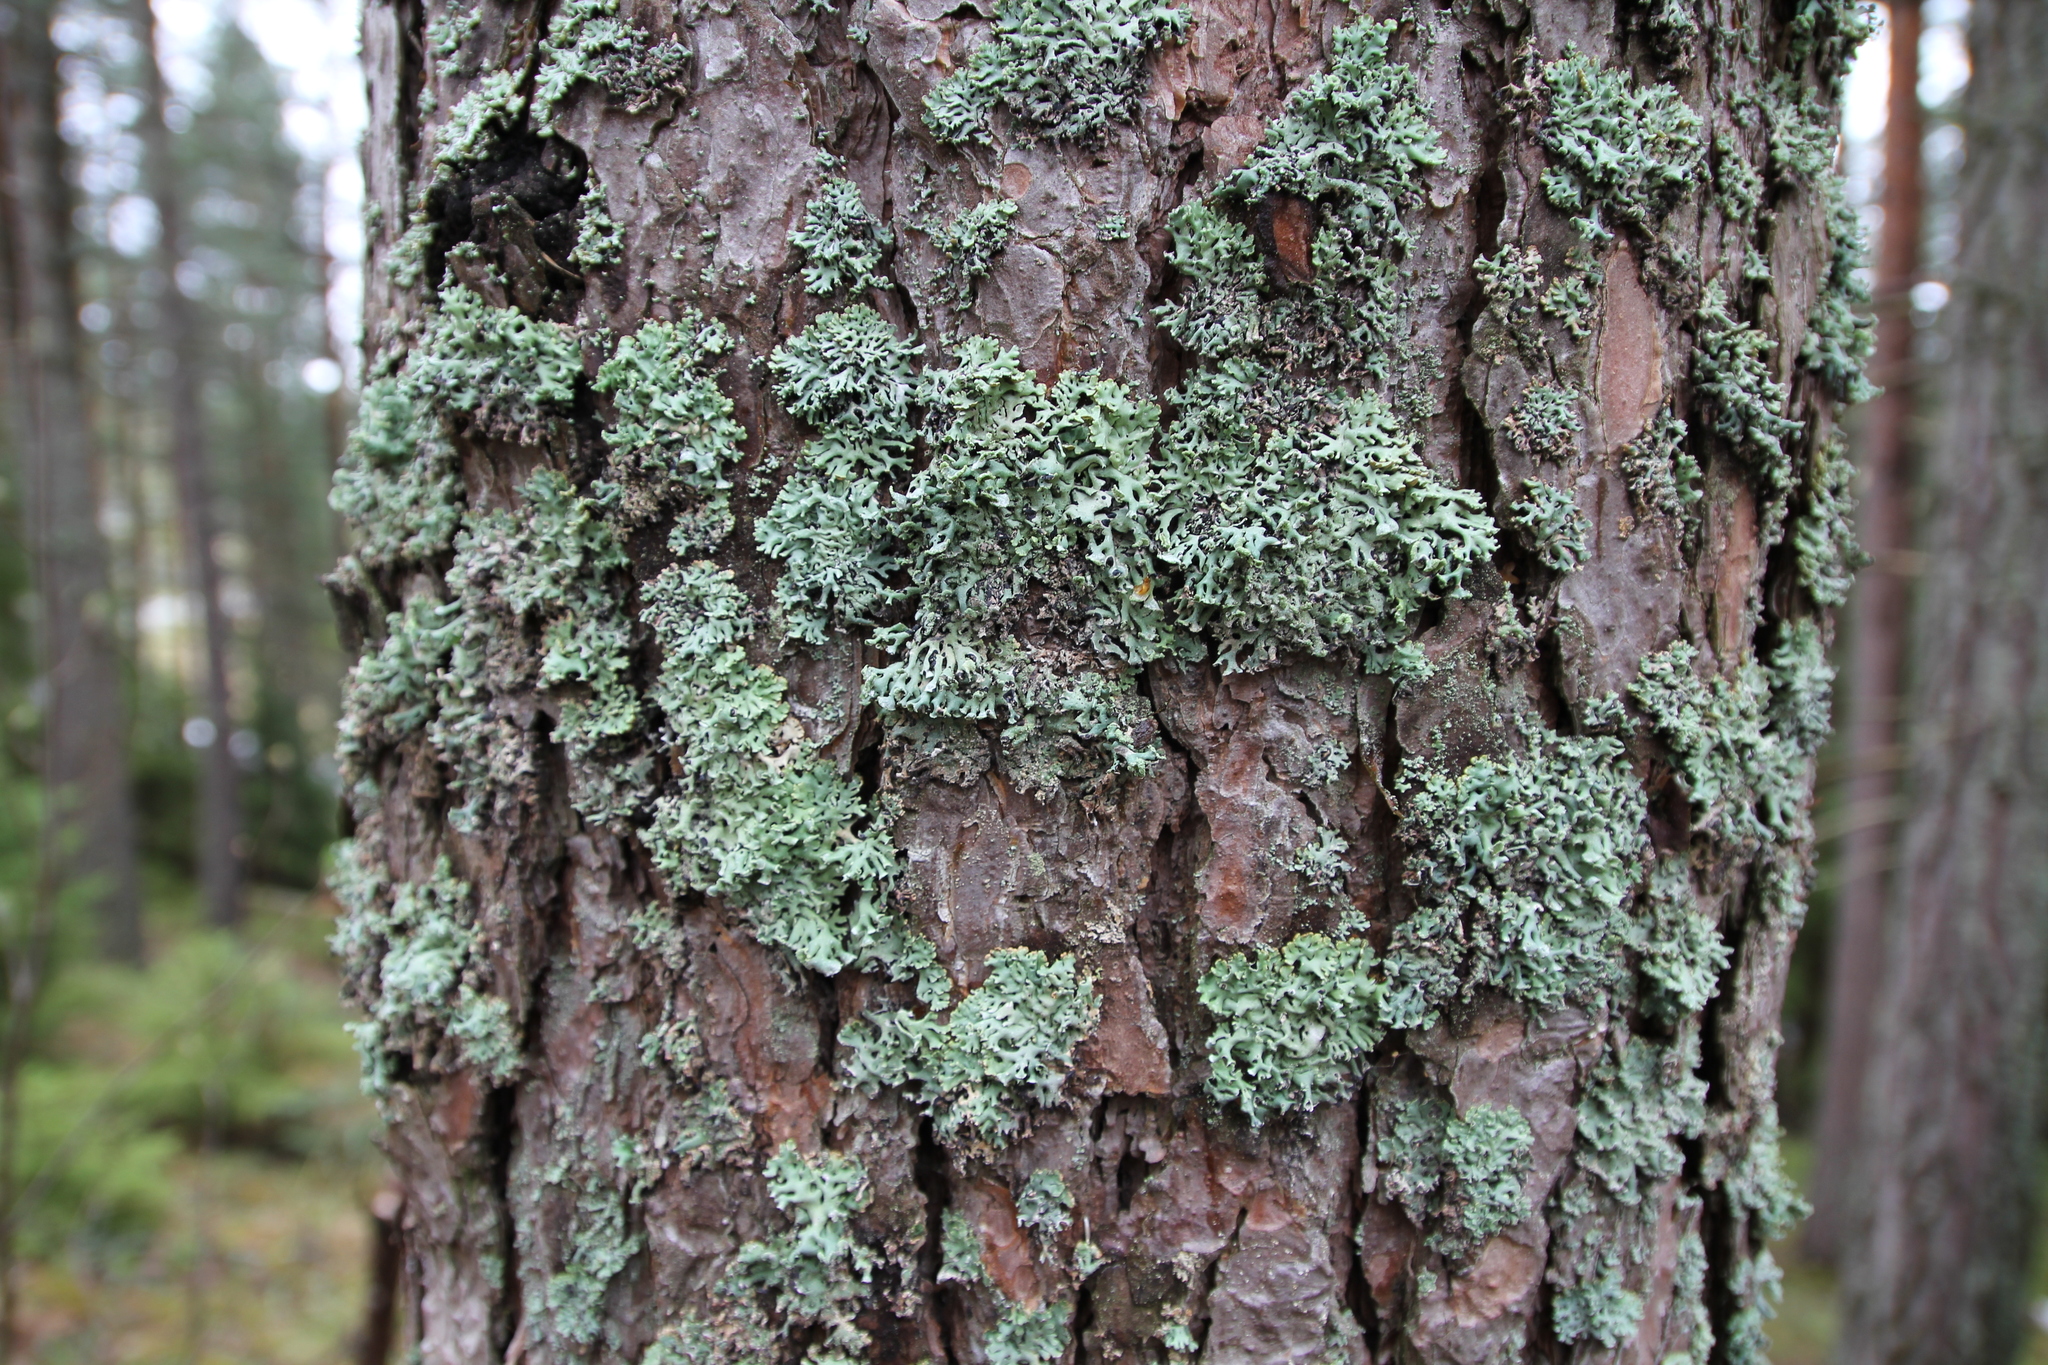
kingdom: Fungi
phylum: Ascomycota
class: Lecanoromycetes
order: Lecanorales
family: Parmeliaceae
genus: Hypogymnia
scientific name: Hypogymnia physodes
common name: Dark crottle
